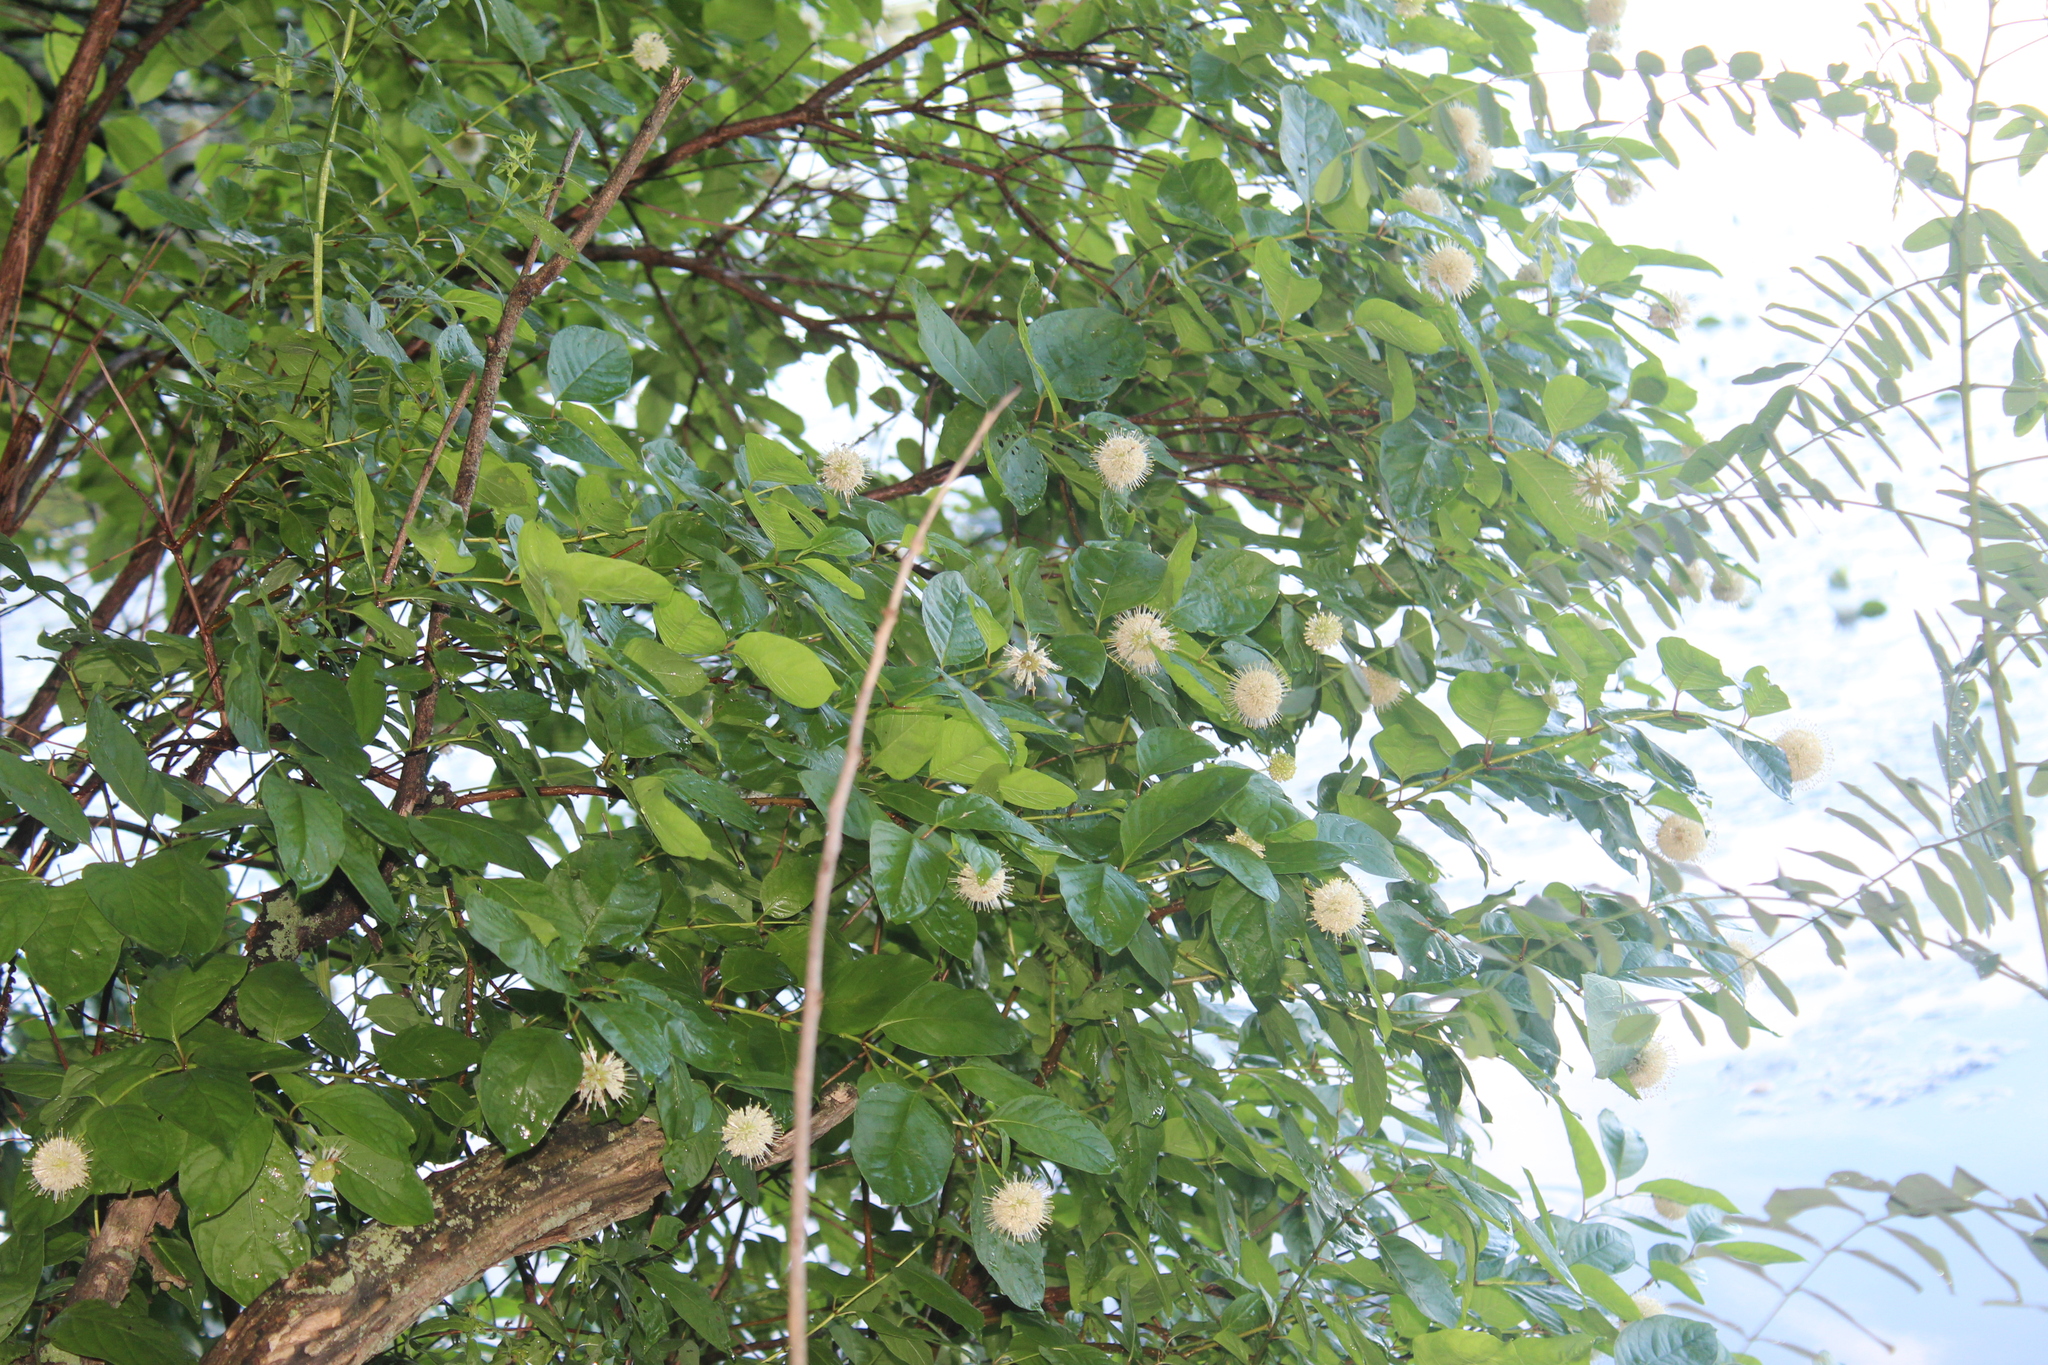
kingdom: Plantae
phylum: Tracheophyta
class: Magnoliopsida
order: Gentianales
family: Rubiaceae
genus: Cephalanthus
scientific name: Cephalanthus occidentalis
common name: Button-willow
